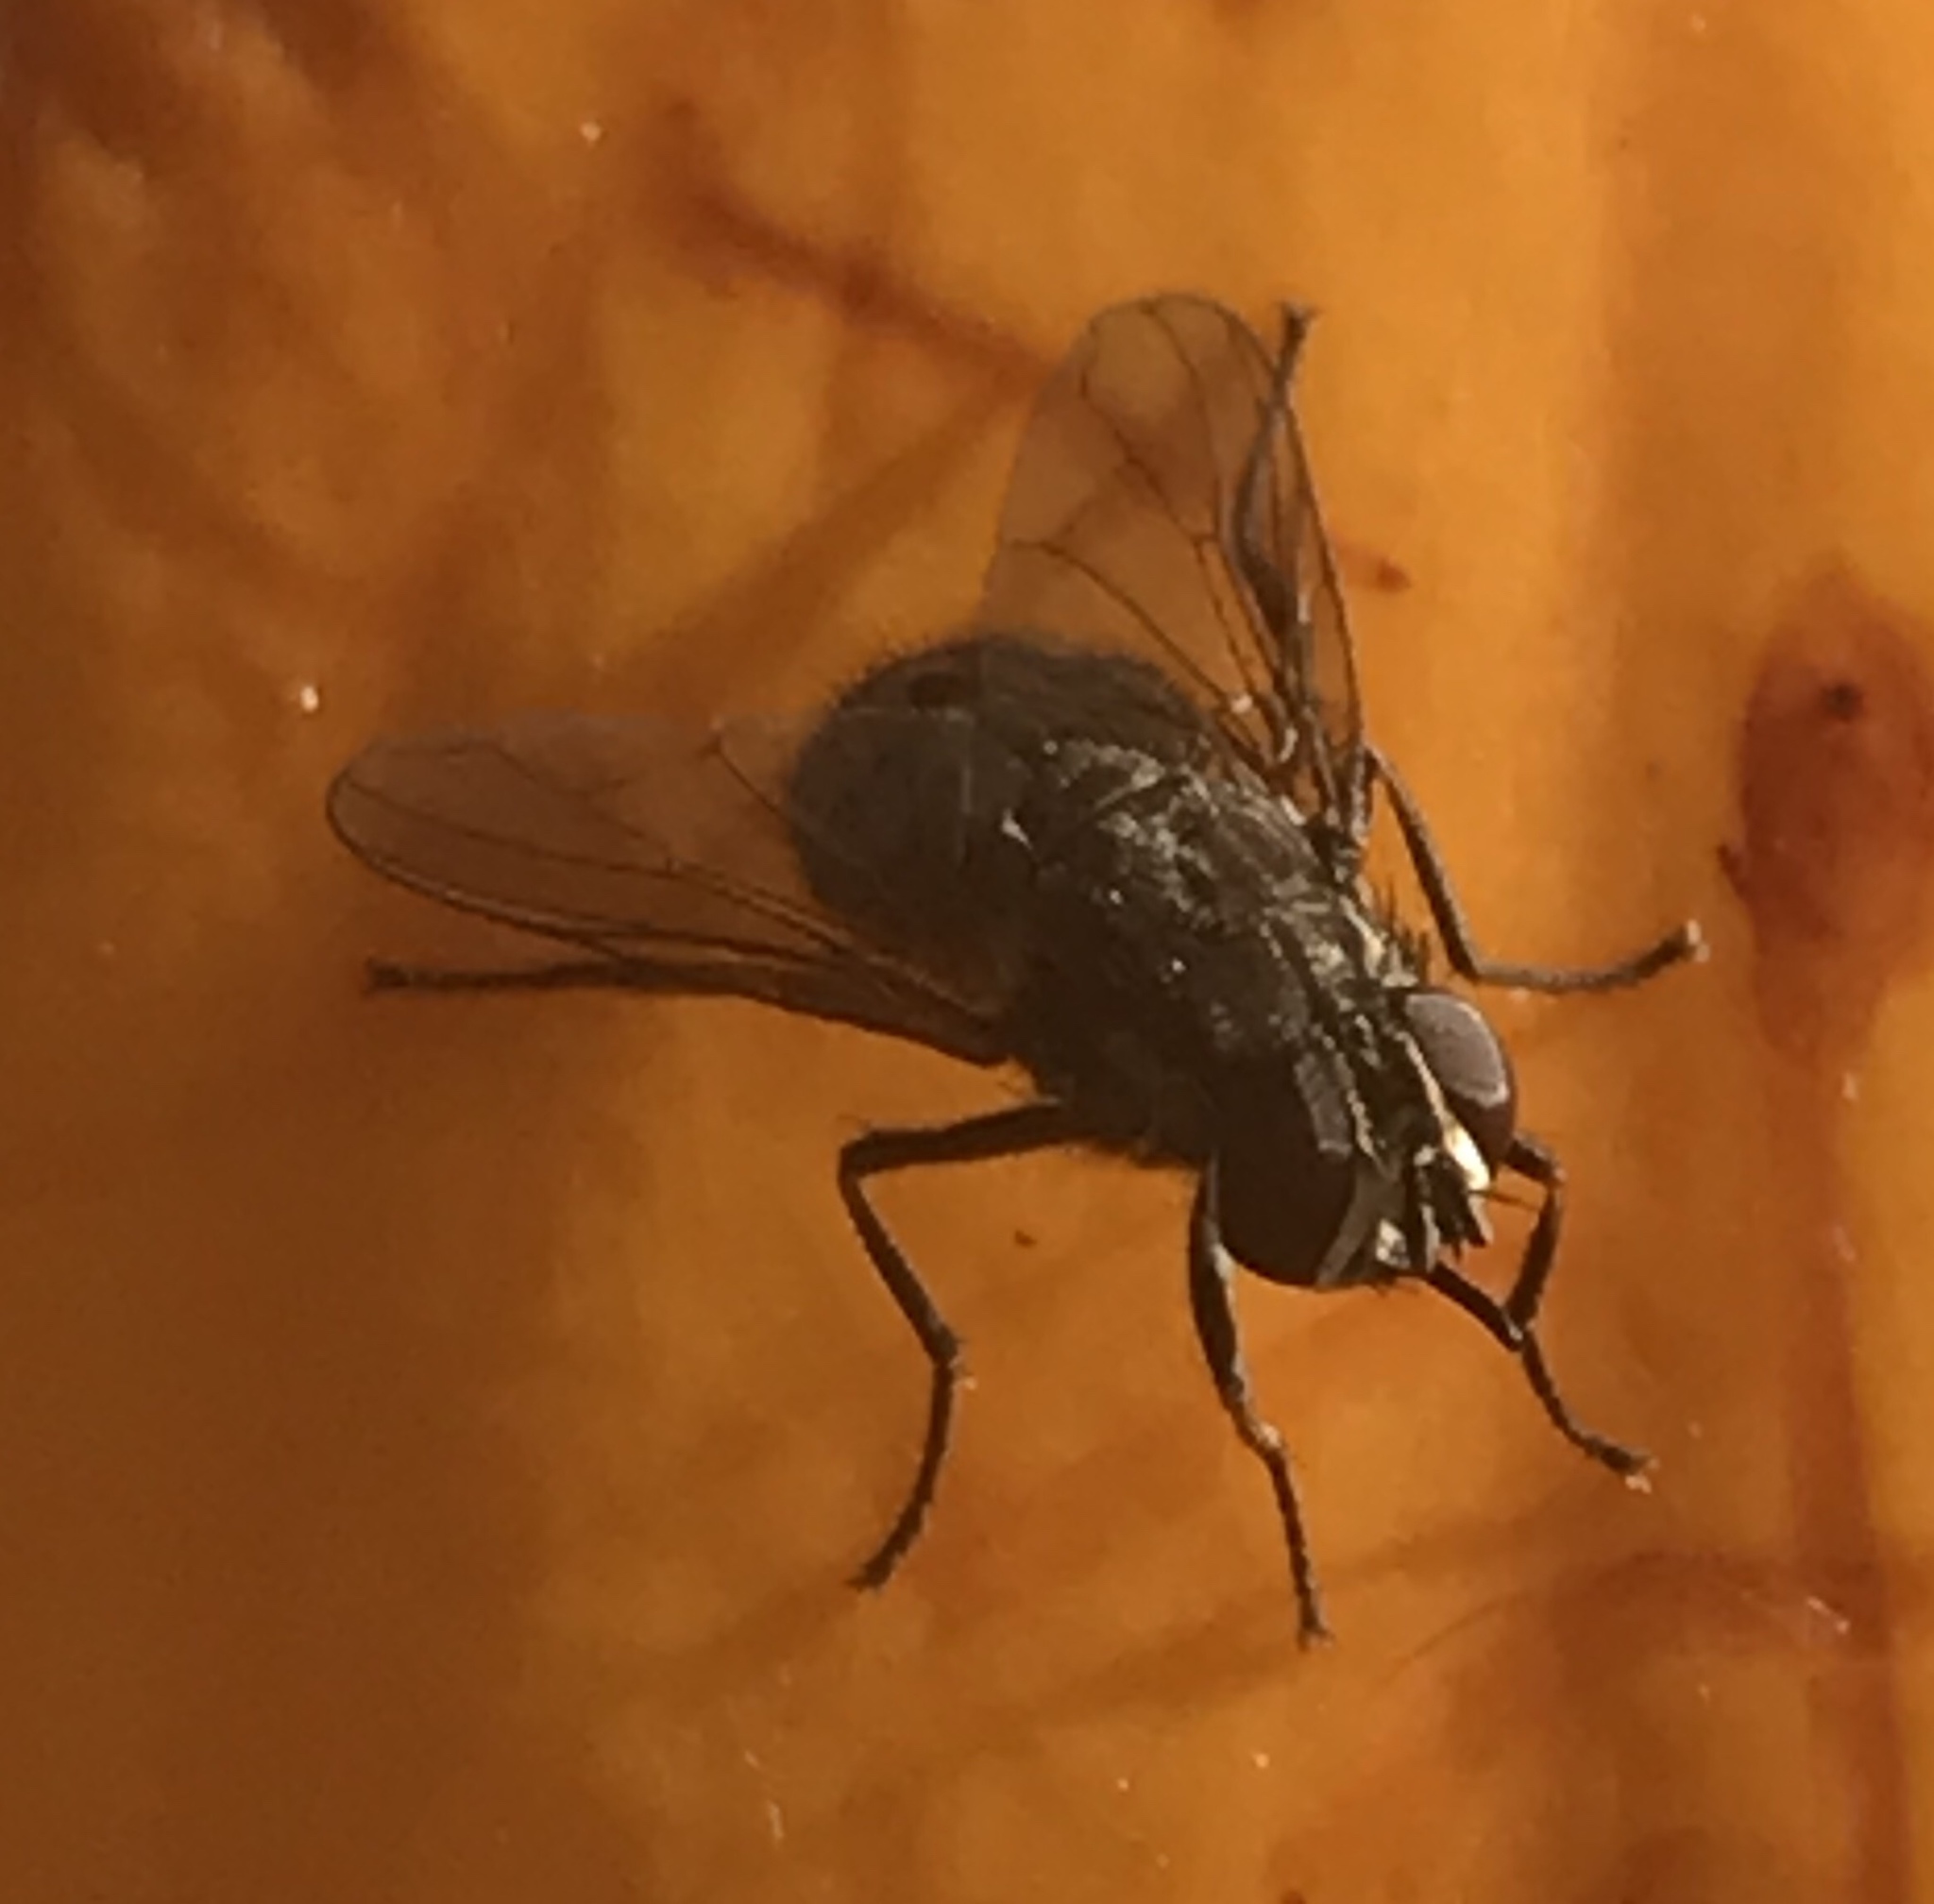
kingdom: Animalia
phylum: Arthropoda
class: Insecta
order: Diptera
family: Muscidae
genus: Stomoxys
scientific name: Stomoxys calcitrans
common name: Stable fly
